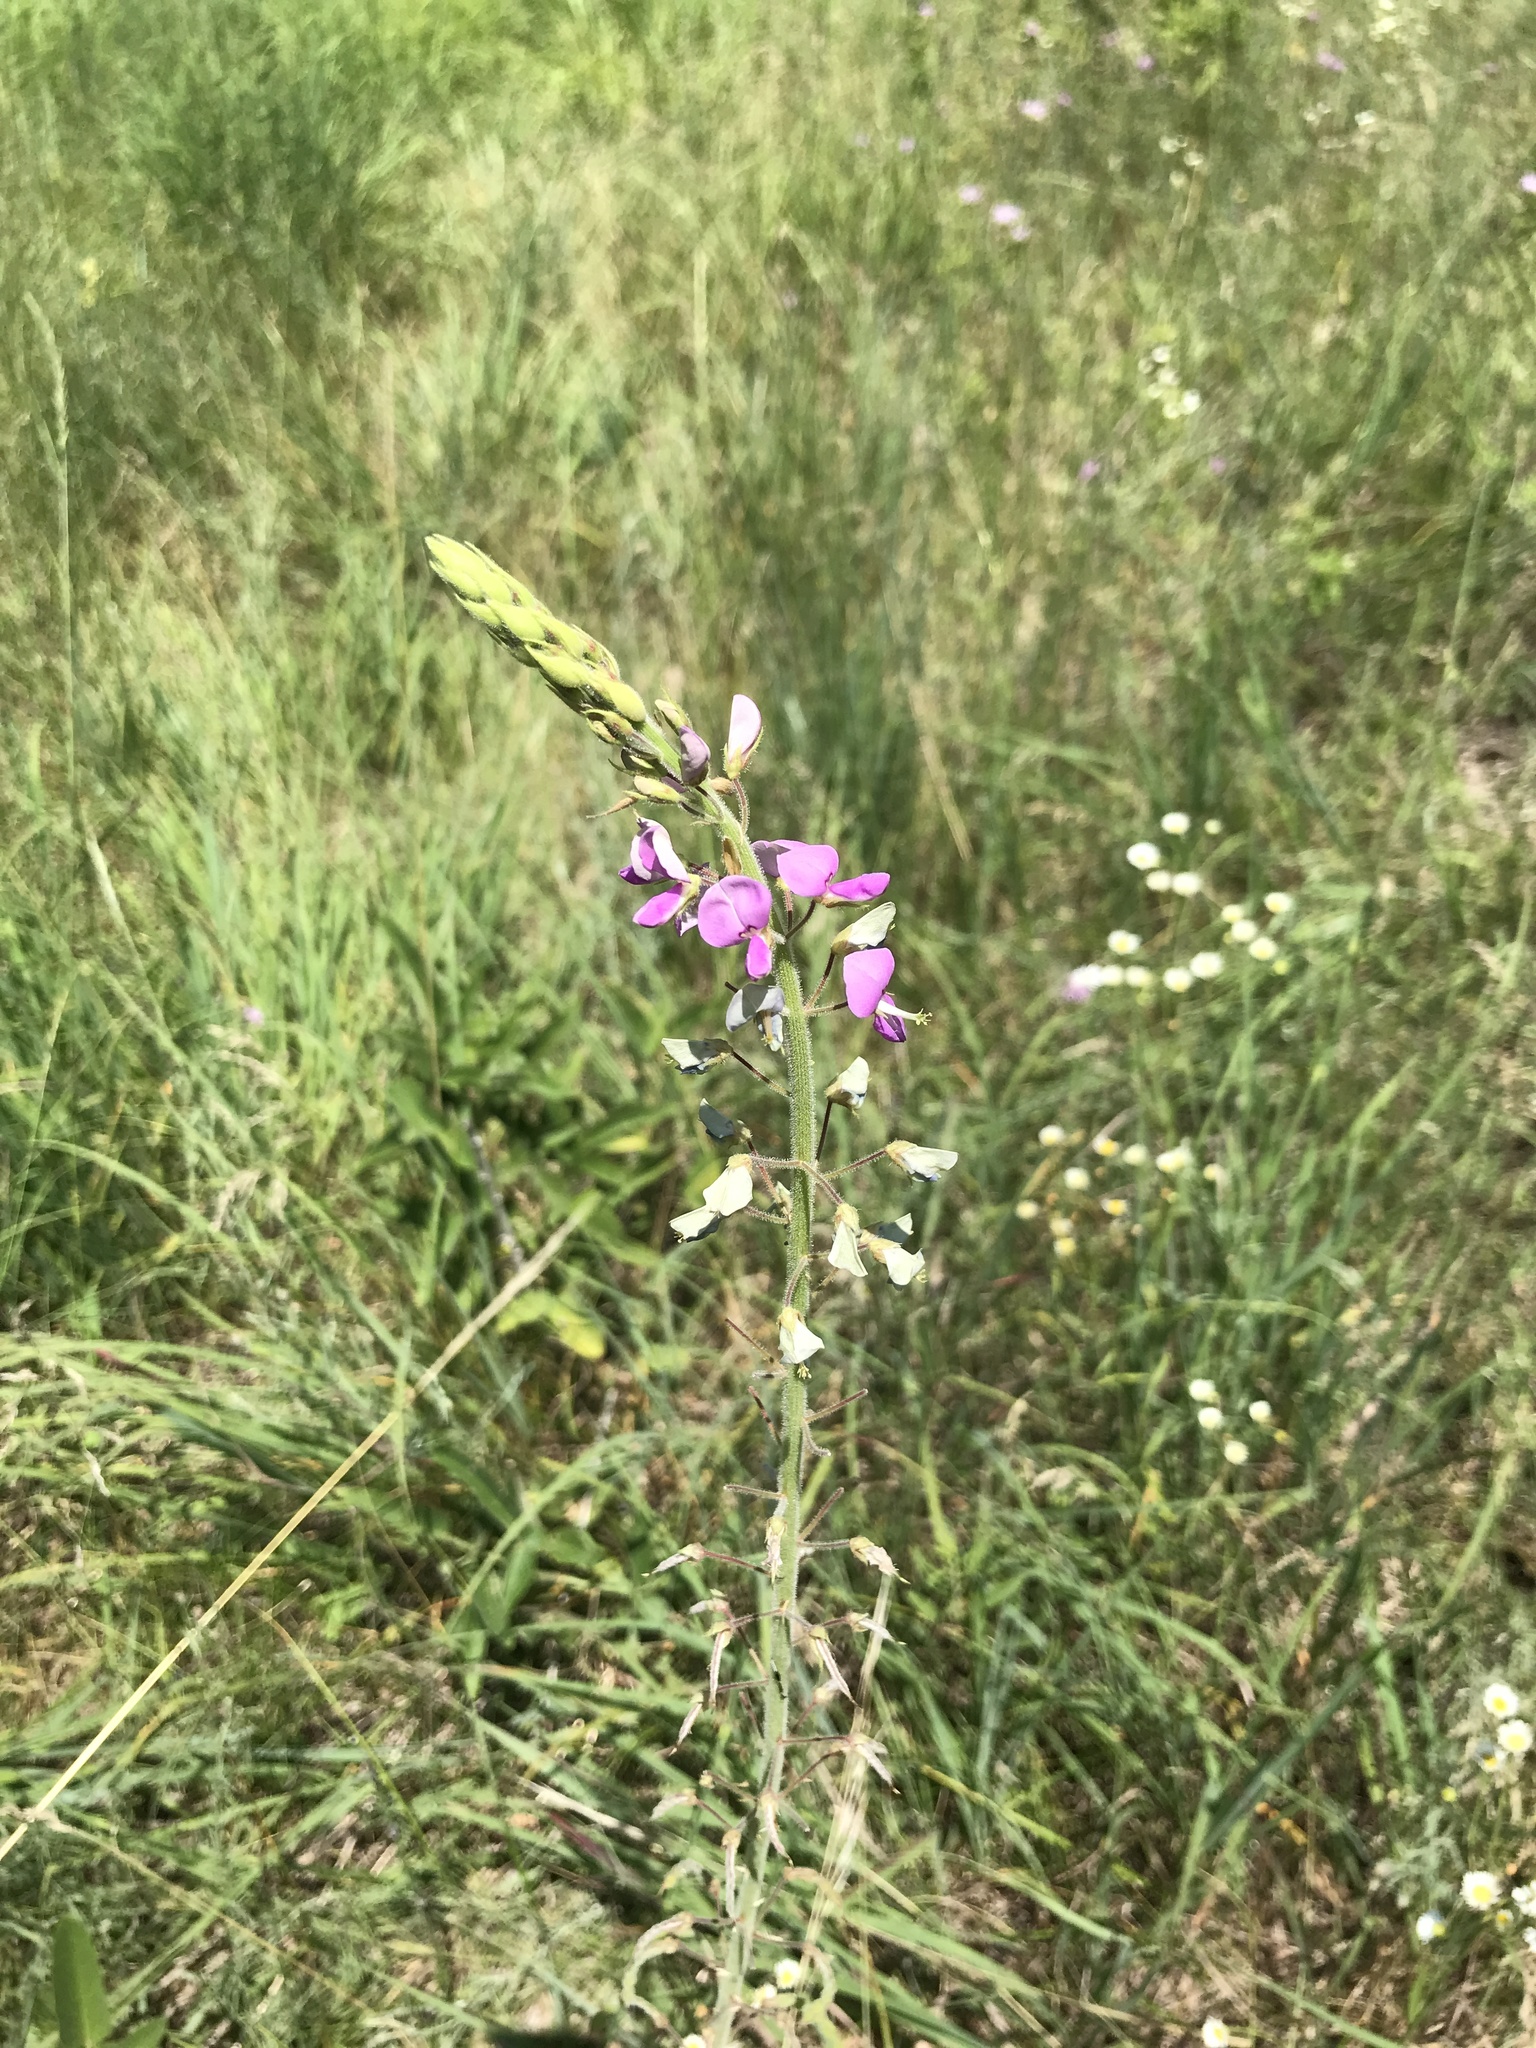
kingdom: Plantae
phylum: Tracheophyta
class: Magnoliopsida
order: Fabales
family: Fabaceae
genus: Desmodium
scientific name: Desmodium illinoense
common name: Illinois tick-clover
